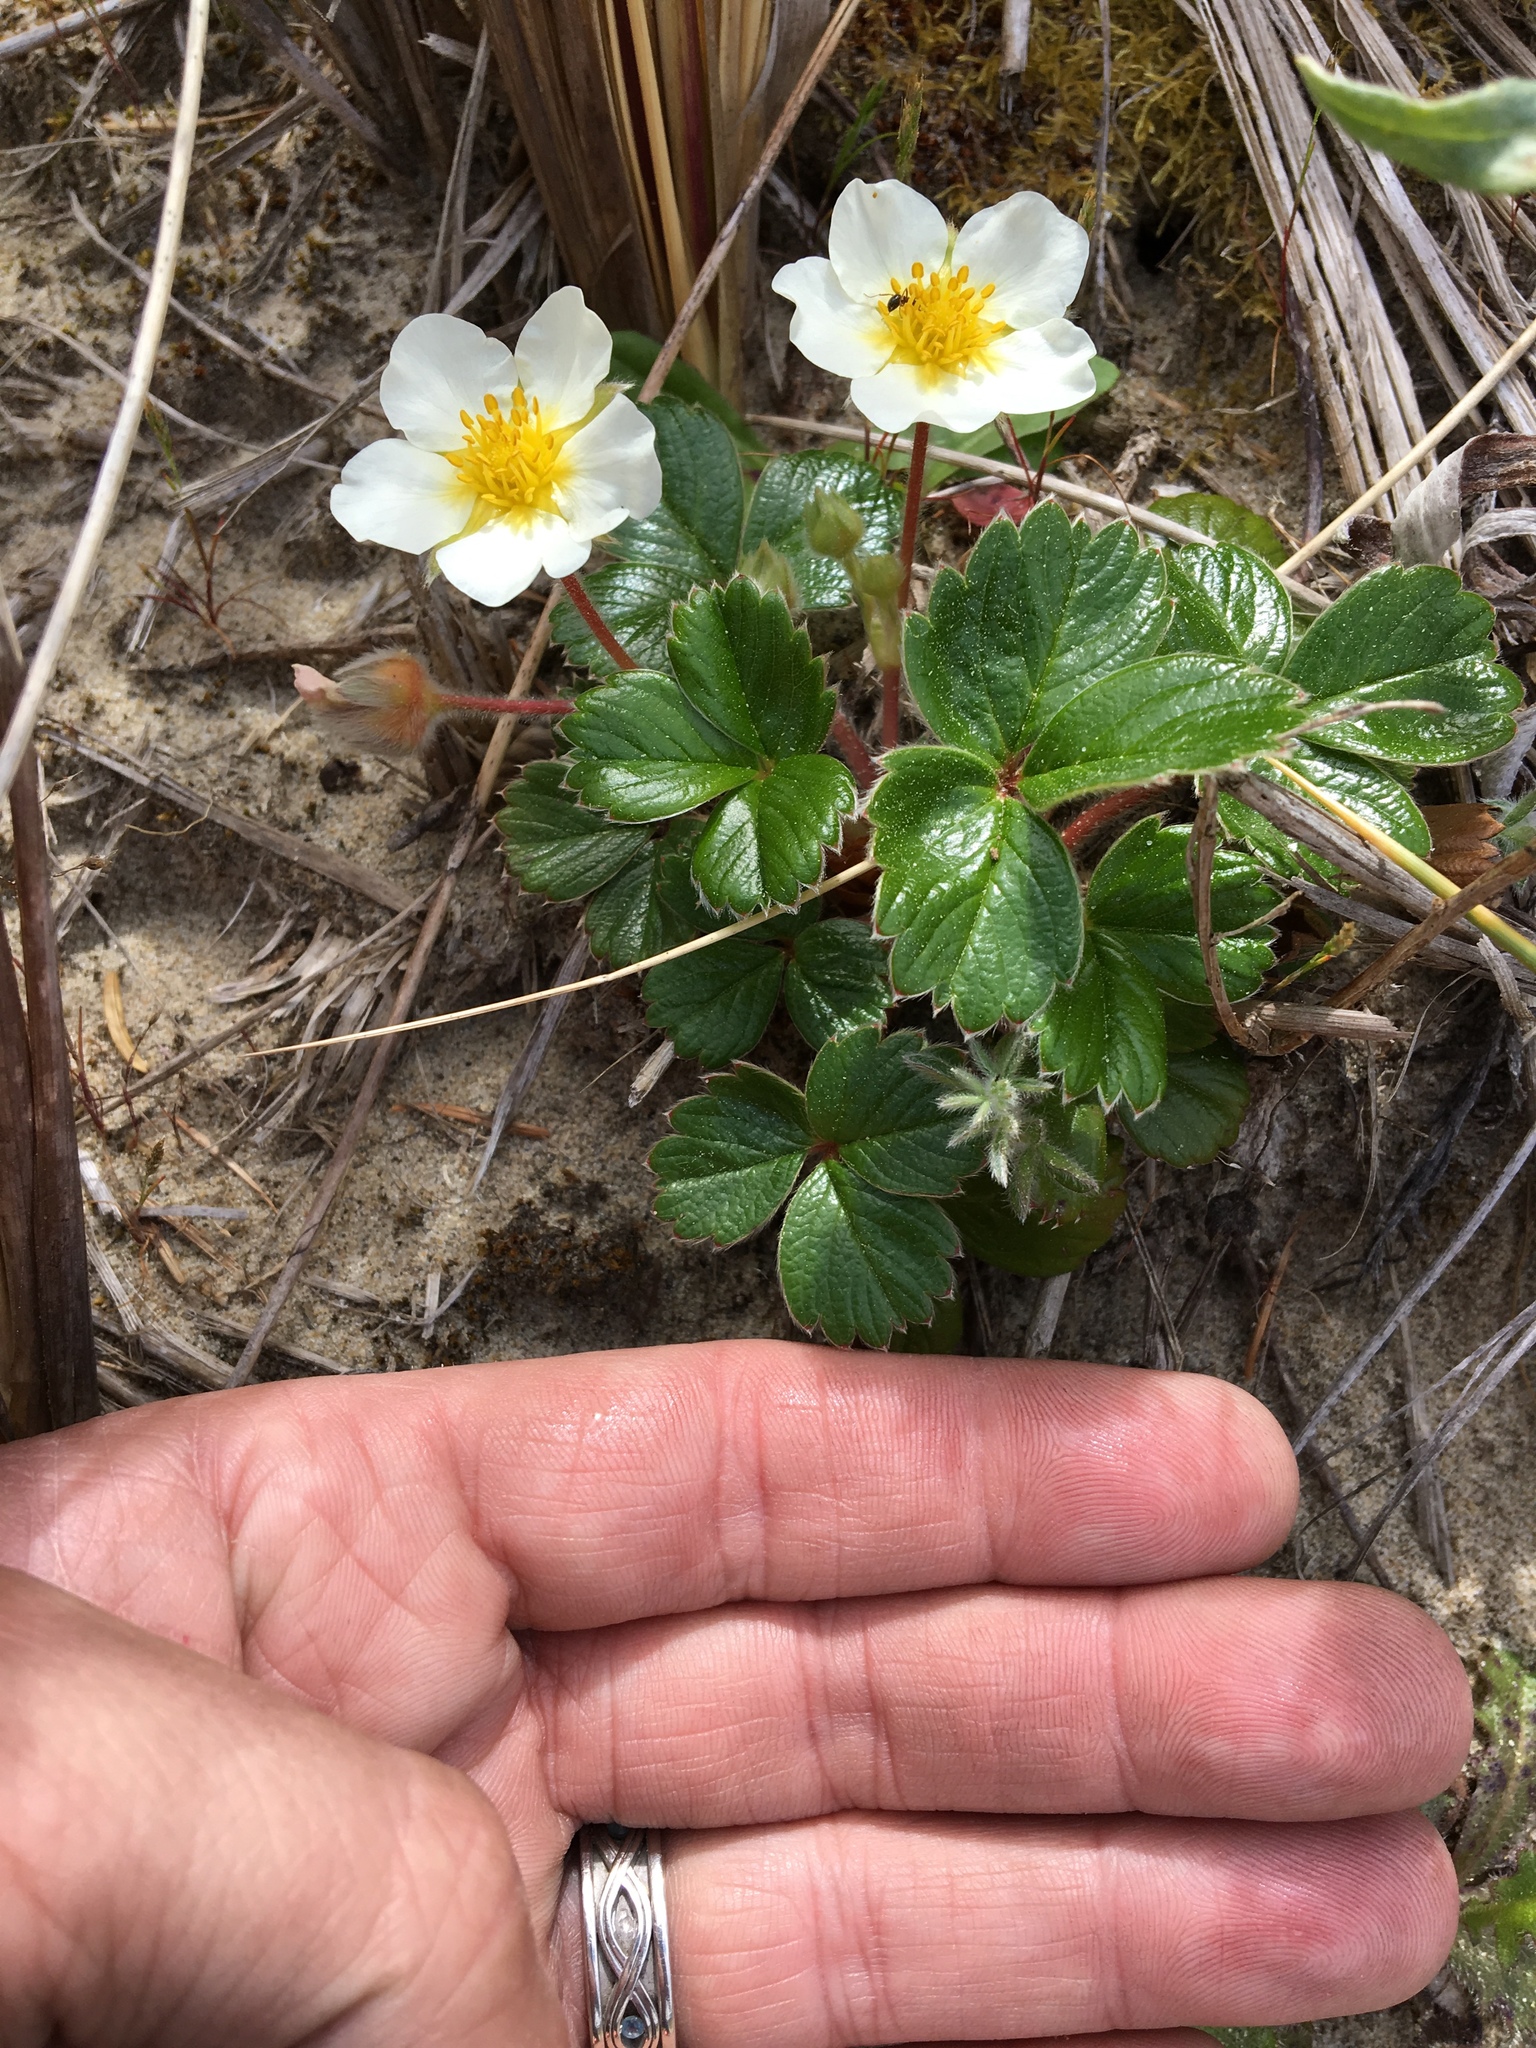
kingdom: Plantae
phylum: Tracheophyta
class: Magnoliopsida
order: Rosales
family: Rosaceae
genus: Fragaria
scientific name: Fragaria chiloensis
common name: Beach strawberry
